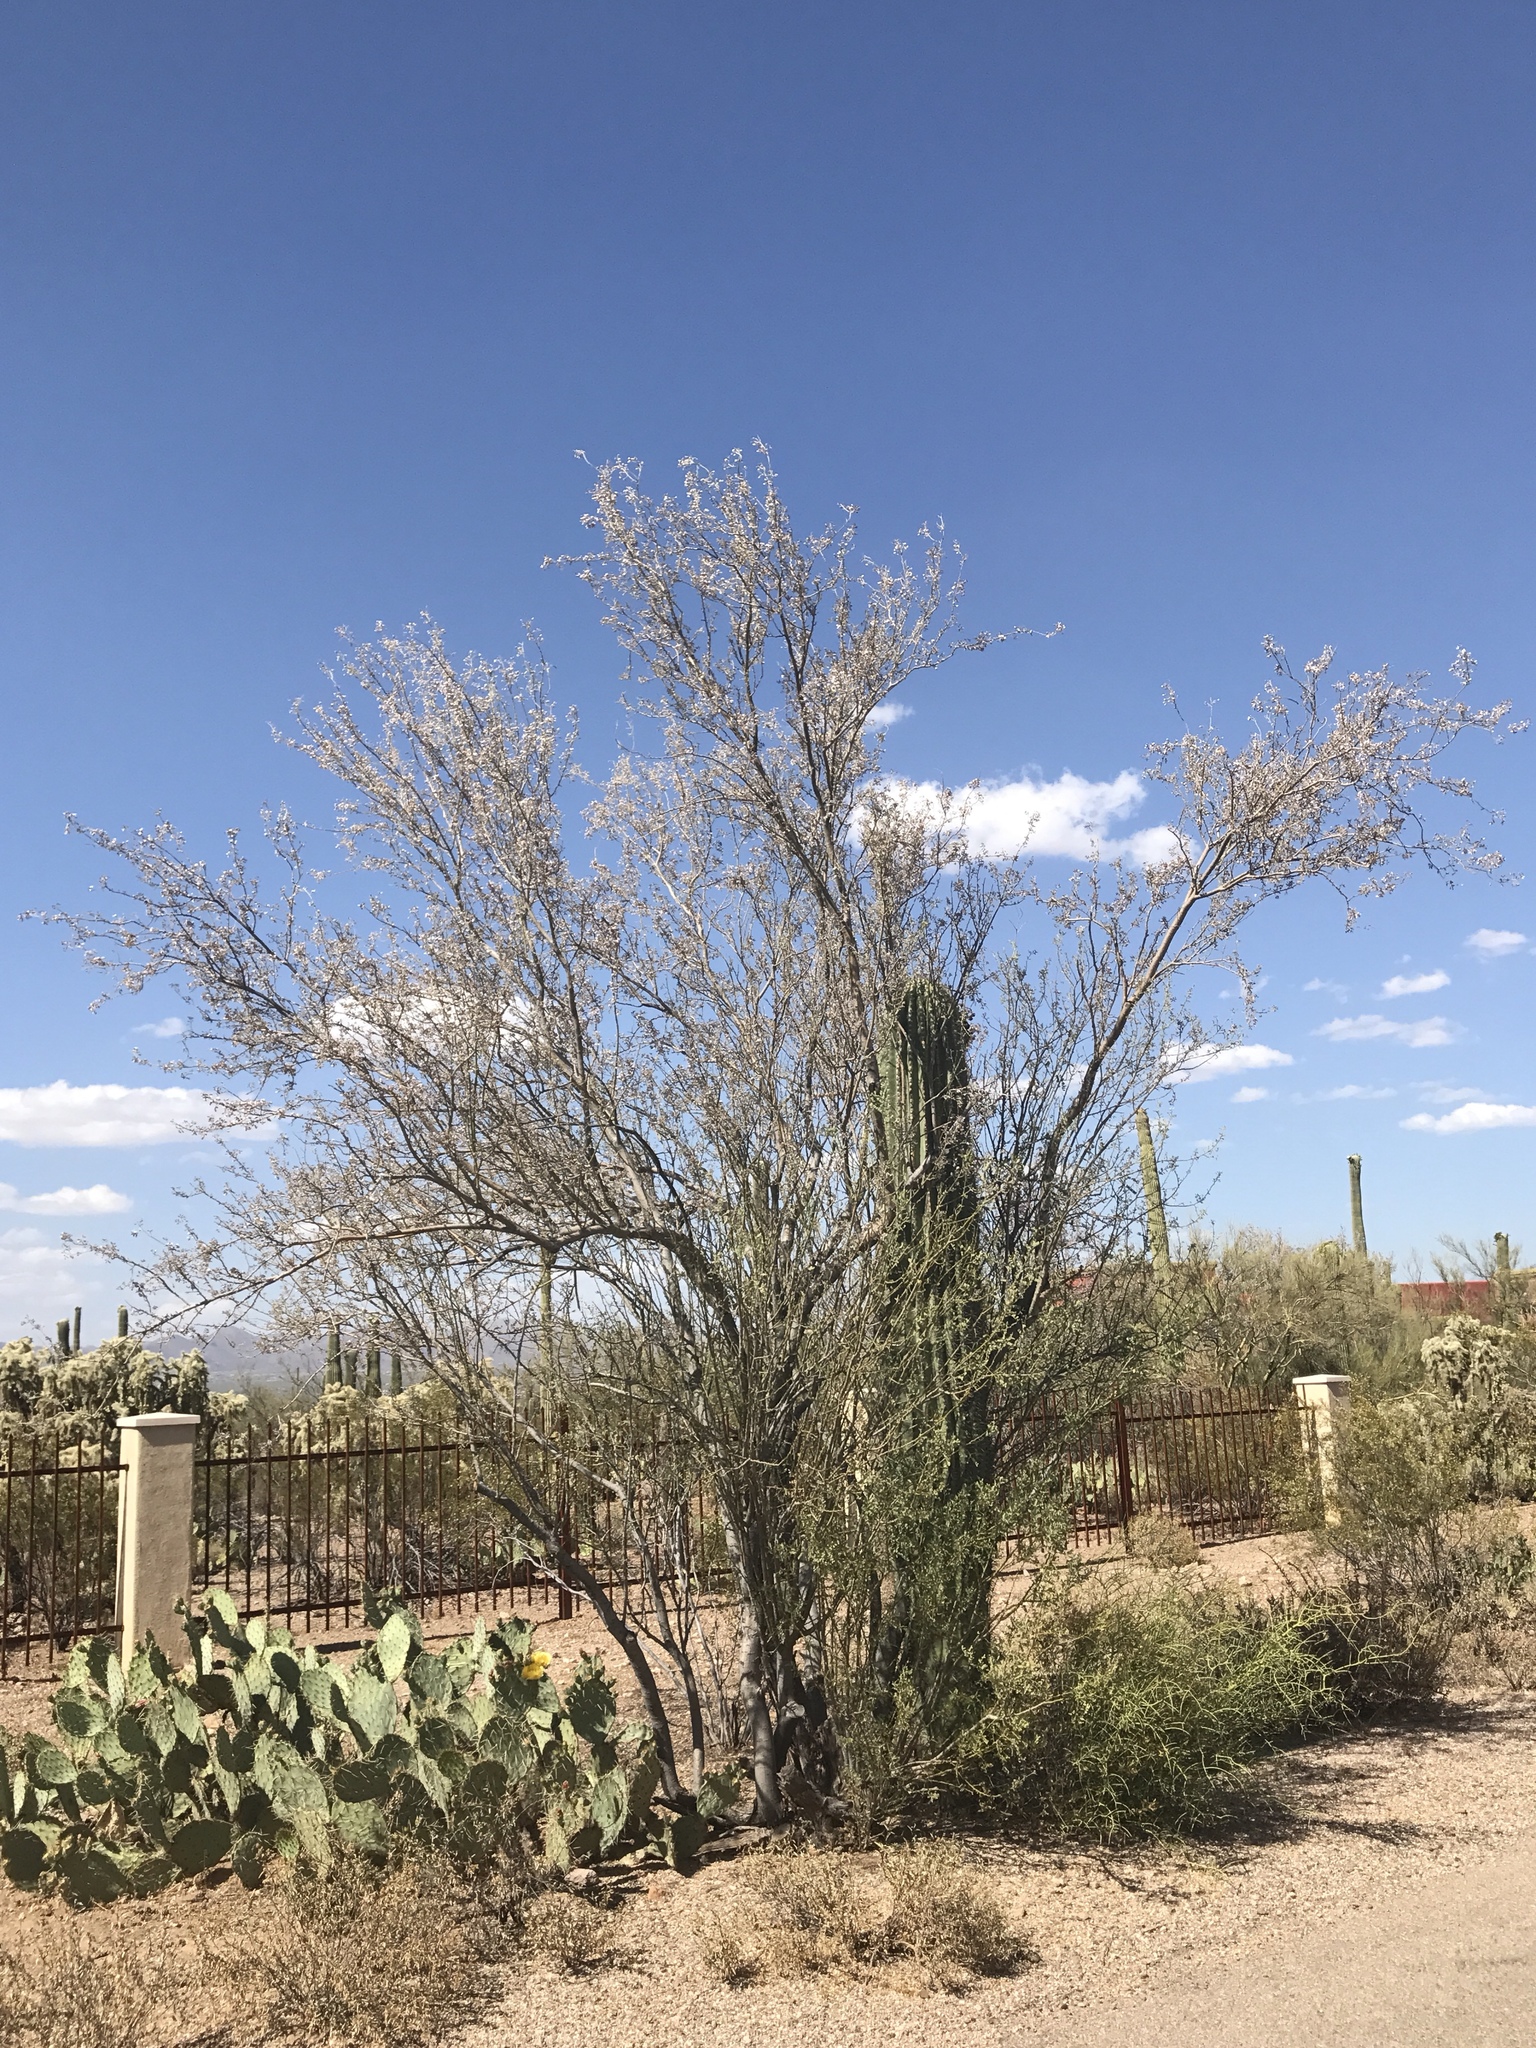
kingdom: Plantae
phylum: Tracheophyta
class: Magnoliopsida
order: Fabales
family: Fabaceae
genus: Olneya
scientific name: Olneya tesota
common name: Desert ironwood
